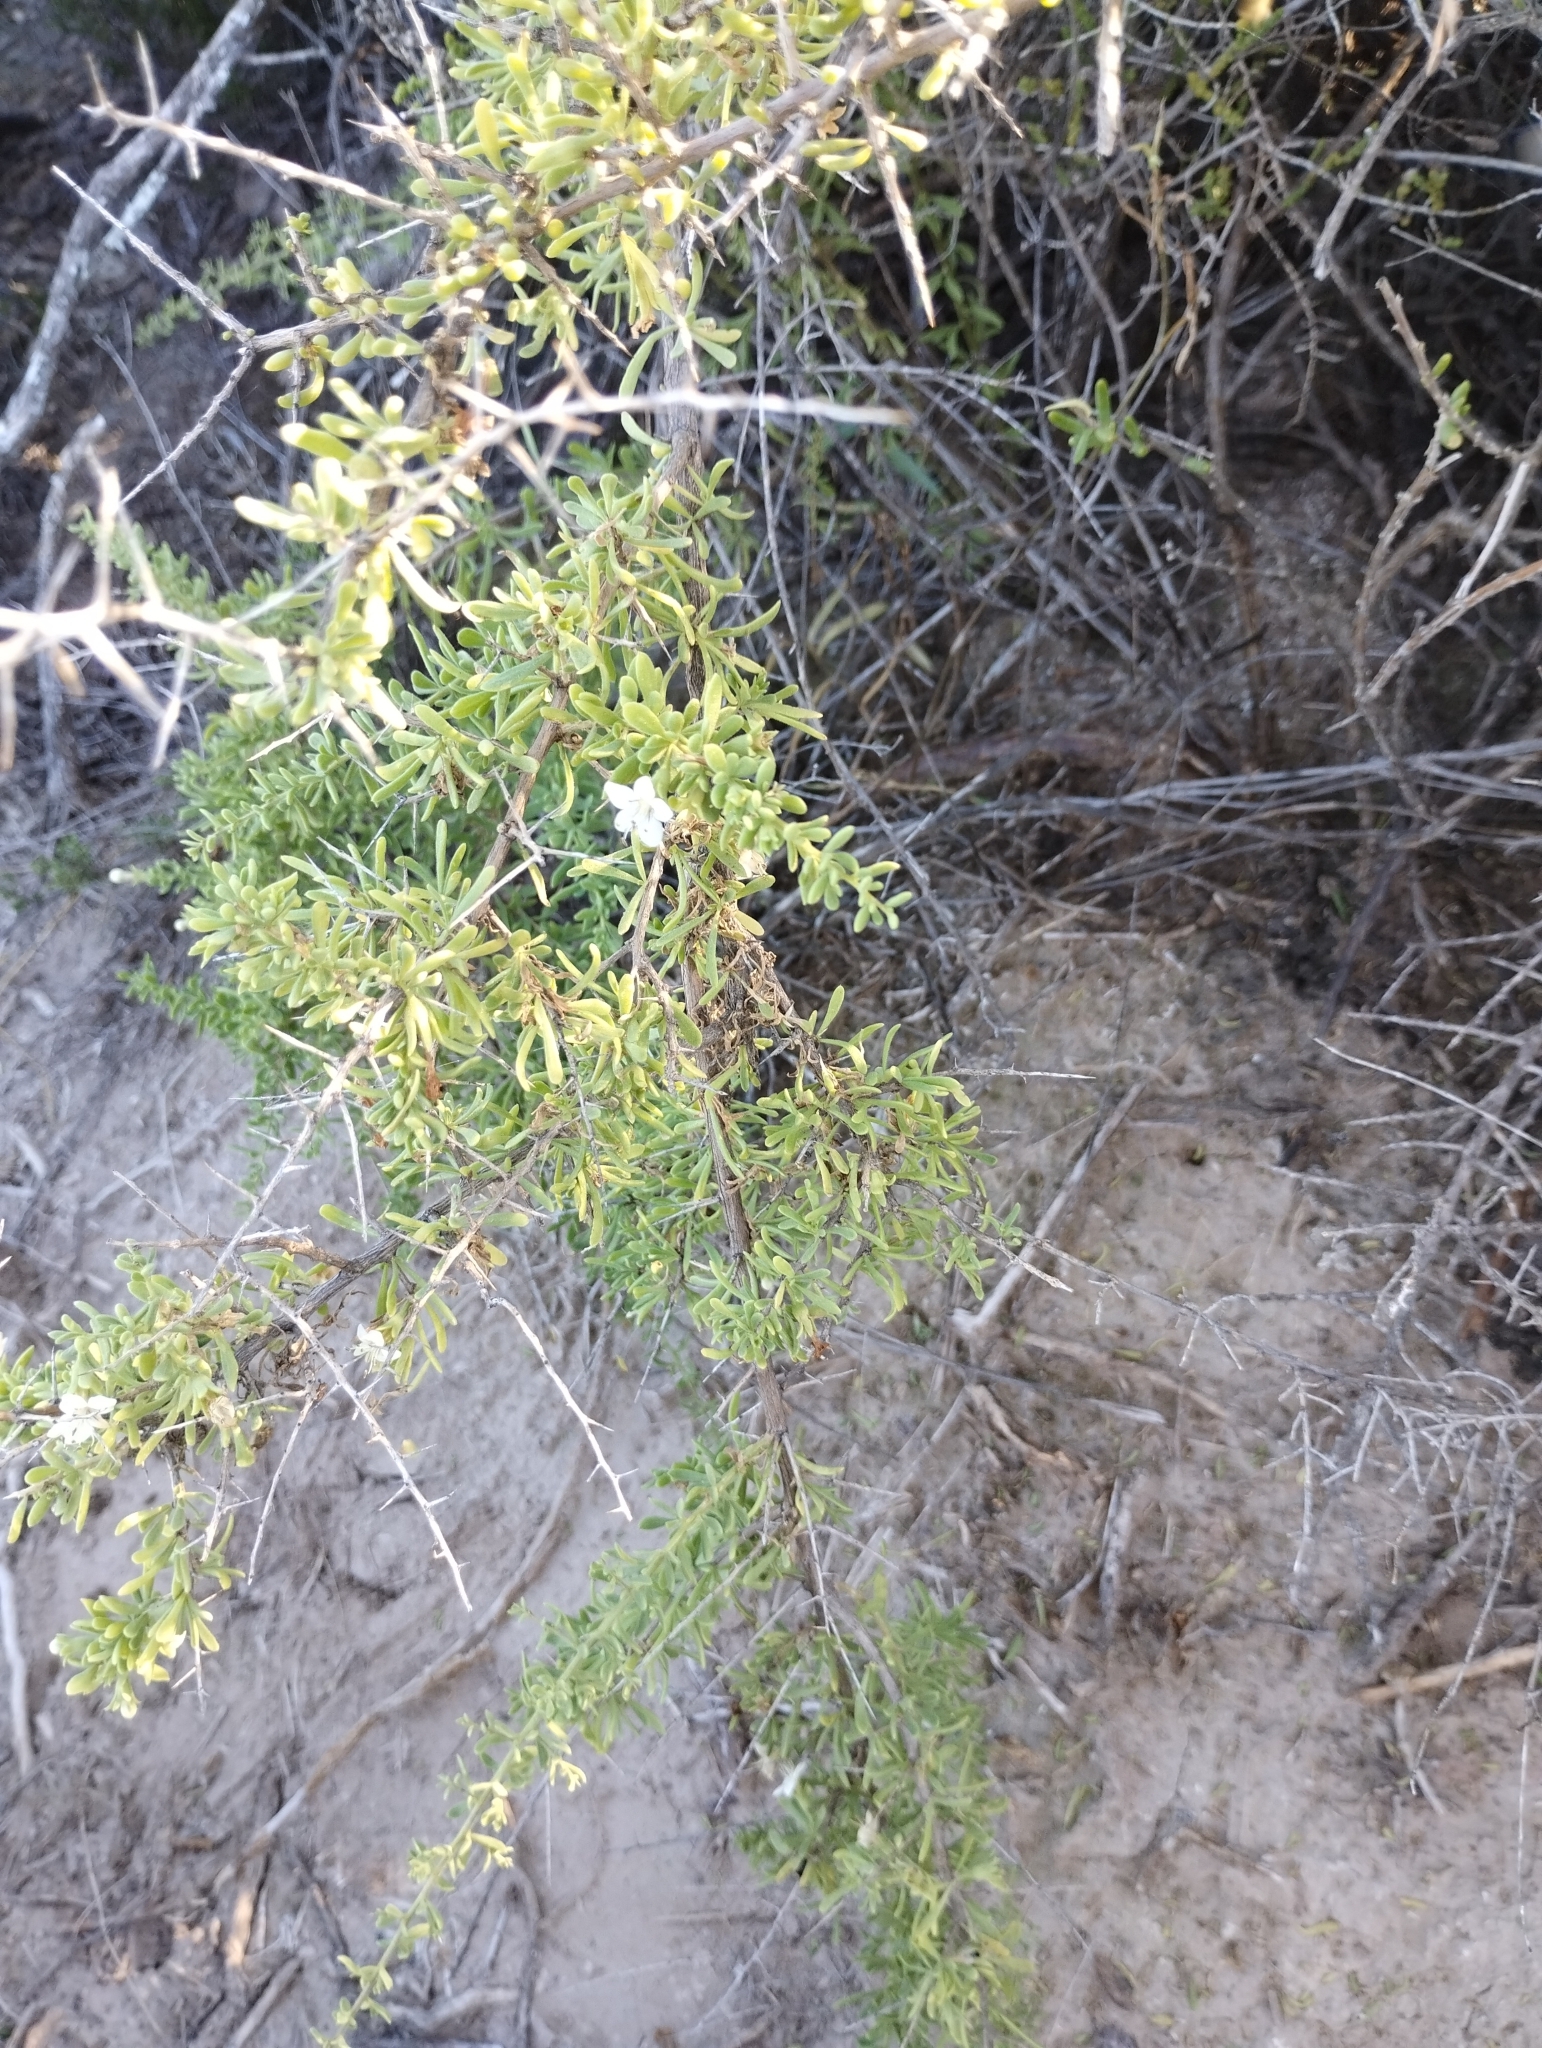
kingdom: Plantae
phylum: Tracheophyta
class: Magnoliopsida
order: Solanales
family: Solanaceae
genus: Lycium
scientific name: Lycium tenuispinosum
